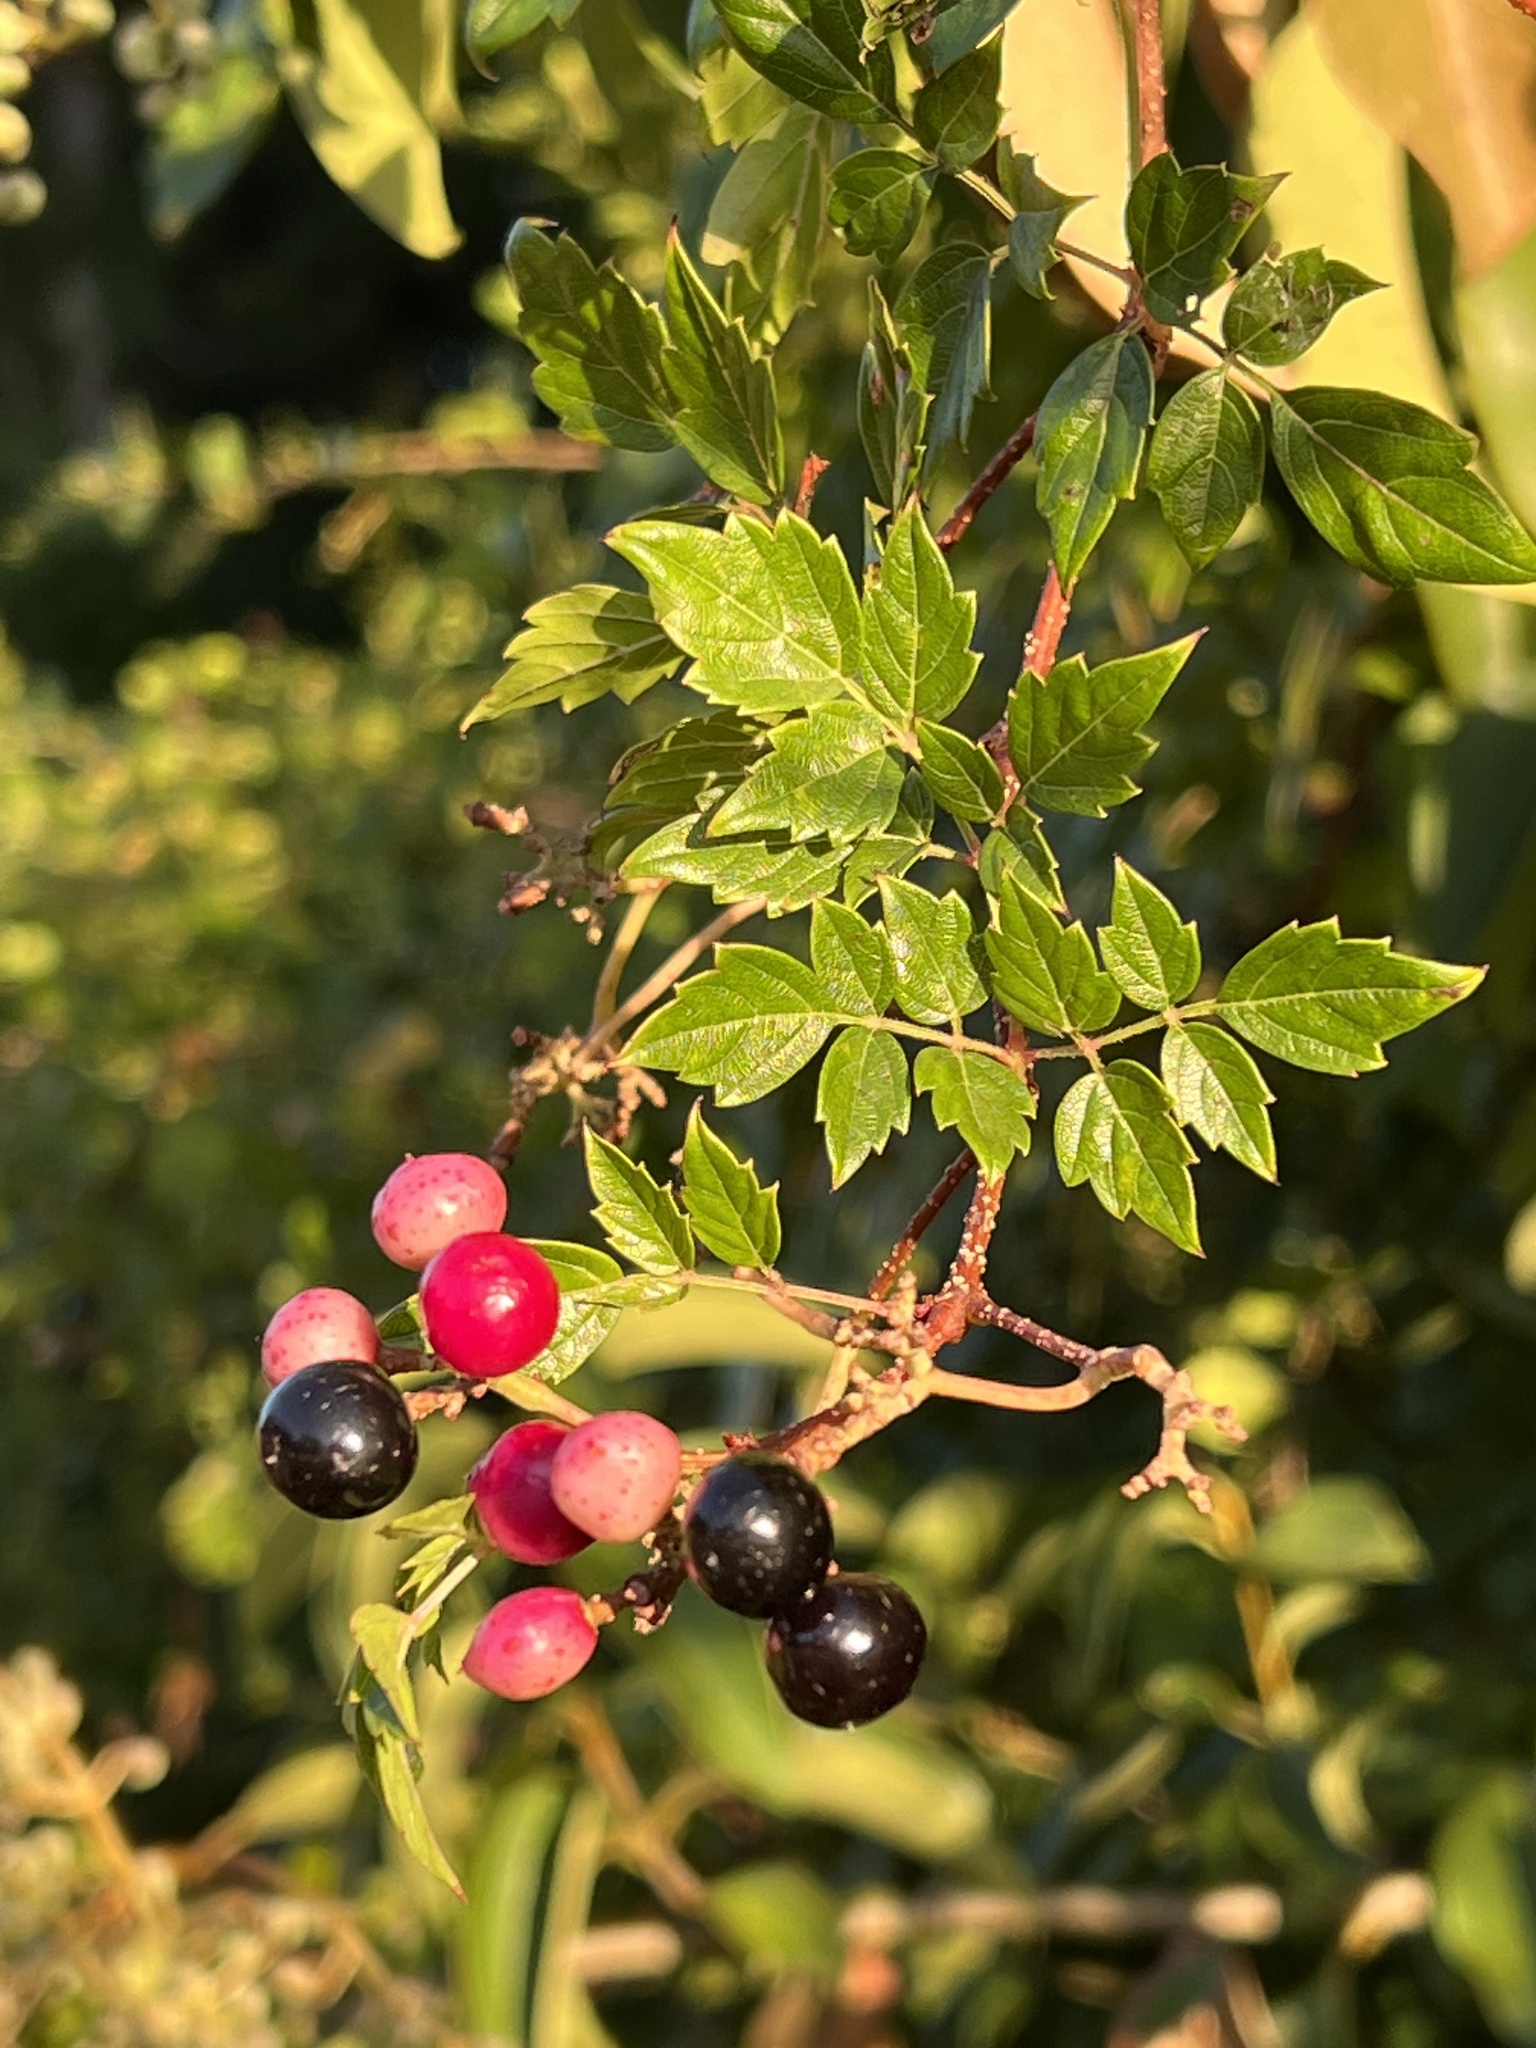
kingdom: Plantae
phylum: Tracheophyta
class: Magnoliopsida
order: Vitales
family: Vitaceae
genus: Nekemias
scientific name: Nekemias arborea
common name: Peppervine
